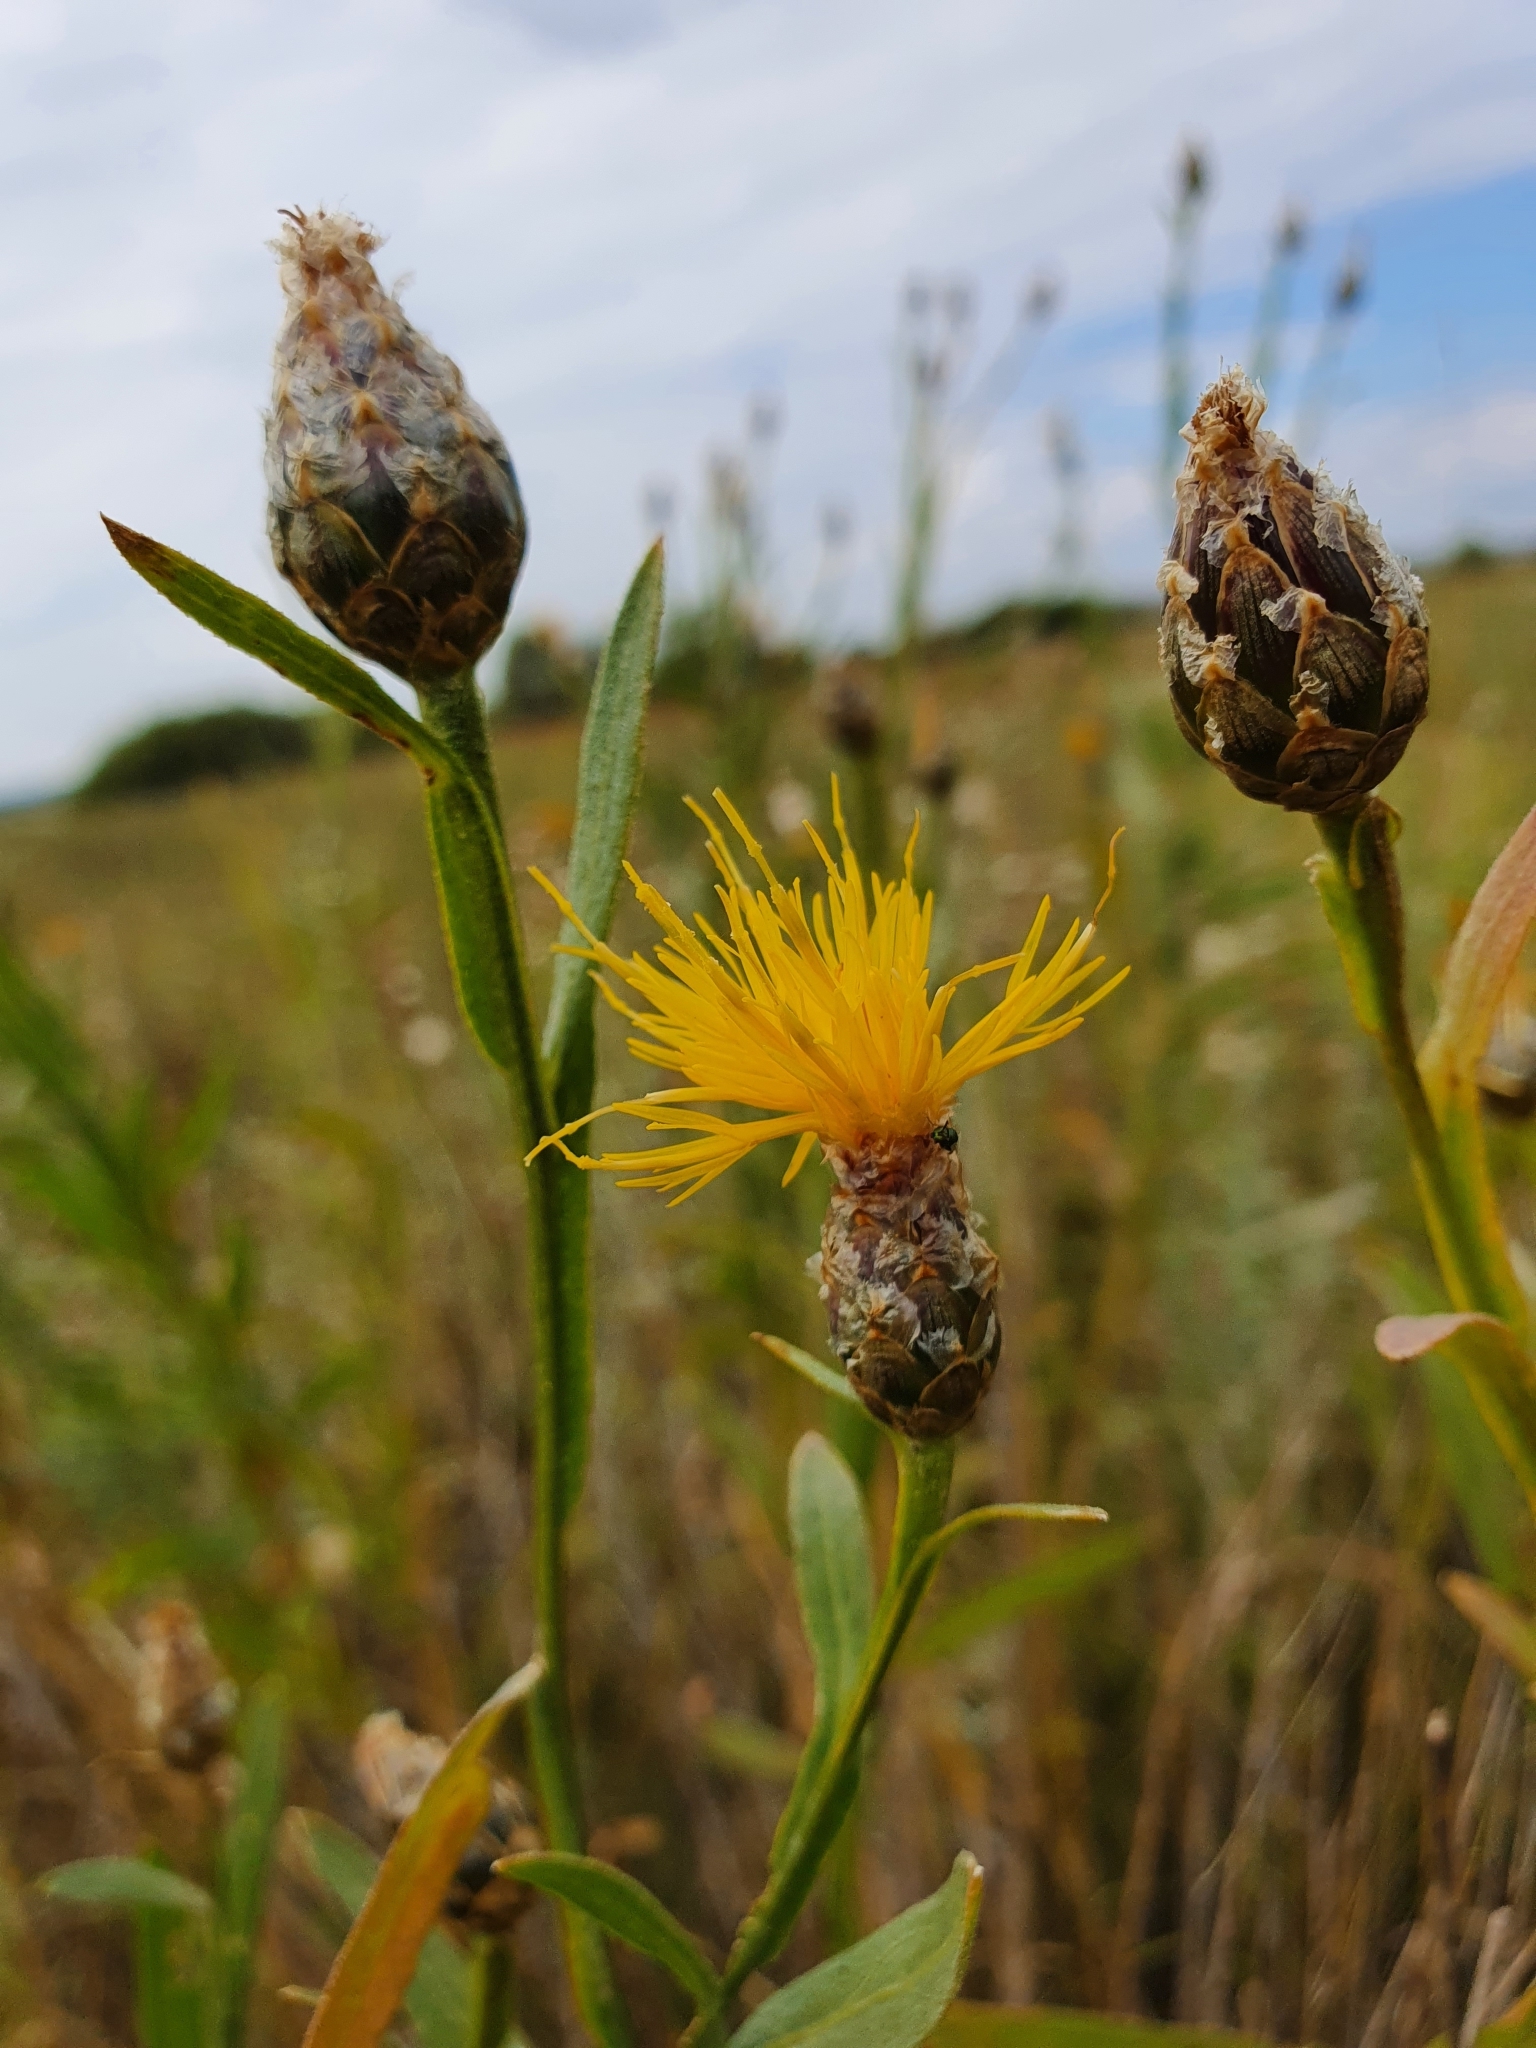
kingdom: Plantae
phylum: Tracheophyta
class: Magnoliopsida
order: Asterales
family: Asteraceae
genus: Centaurea
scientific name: Centaurea glastifolia
